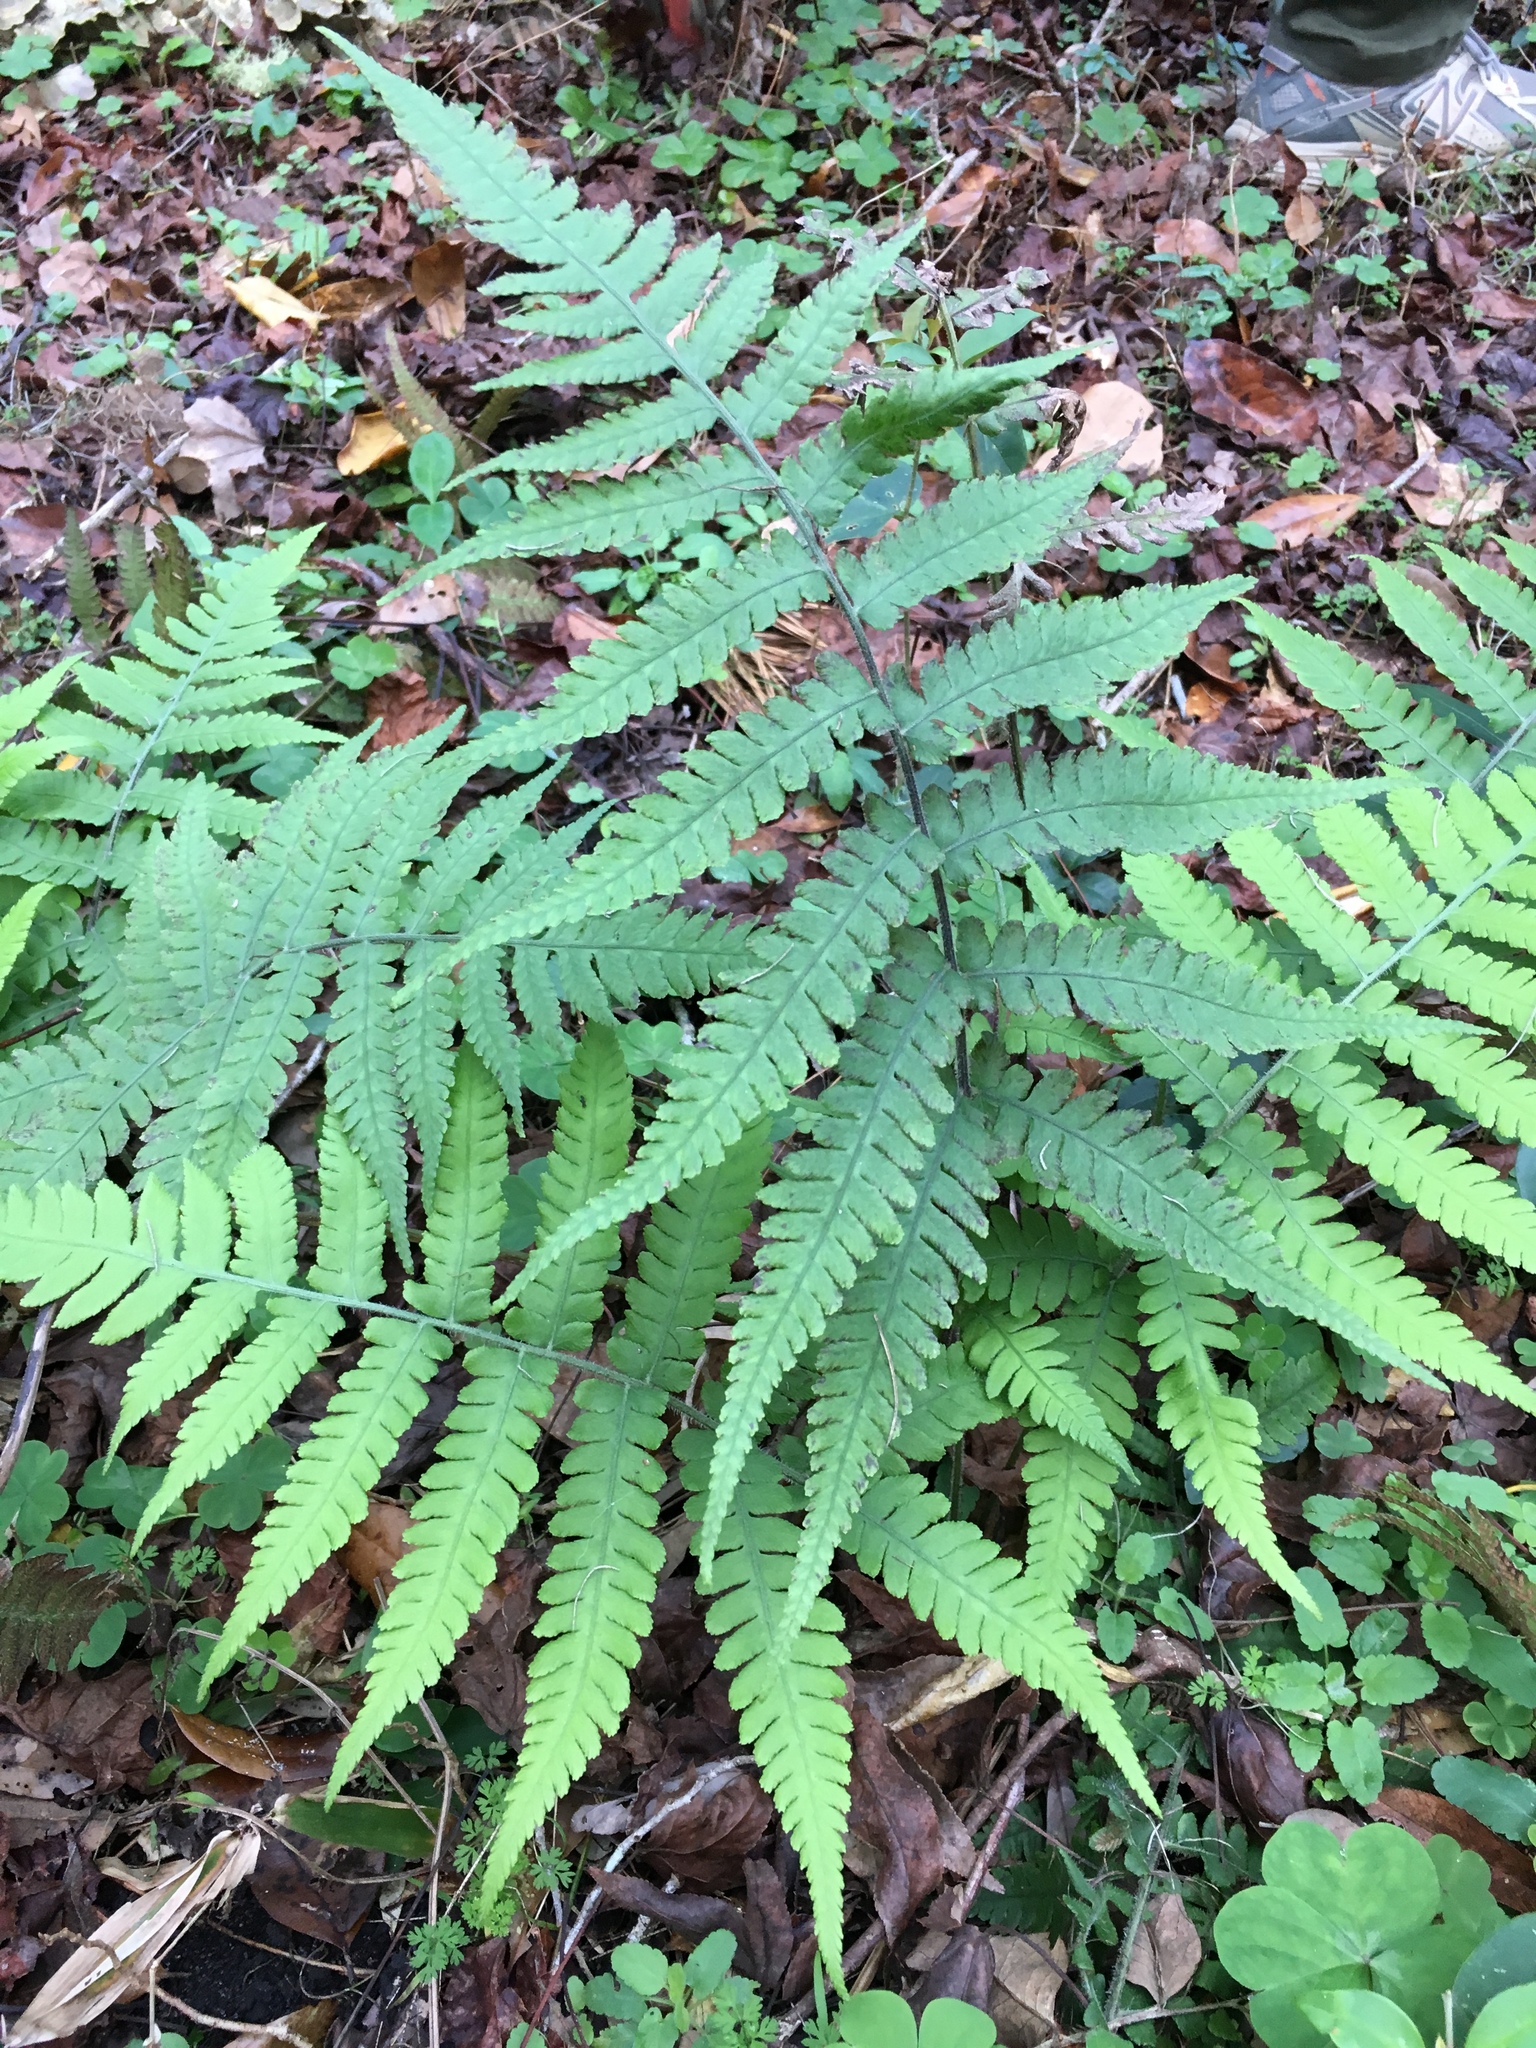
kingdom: Plantae
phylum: Tracheophyta
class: Polypodiopsida
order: Polypodiales
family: Athyriaceae
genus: Deparia
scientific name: Deparia petersenii
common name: Japanese false spleenwort
